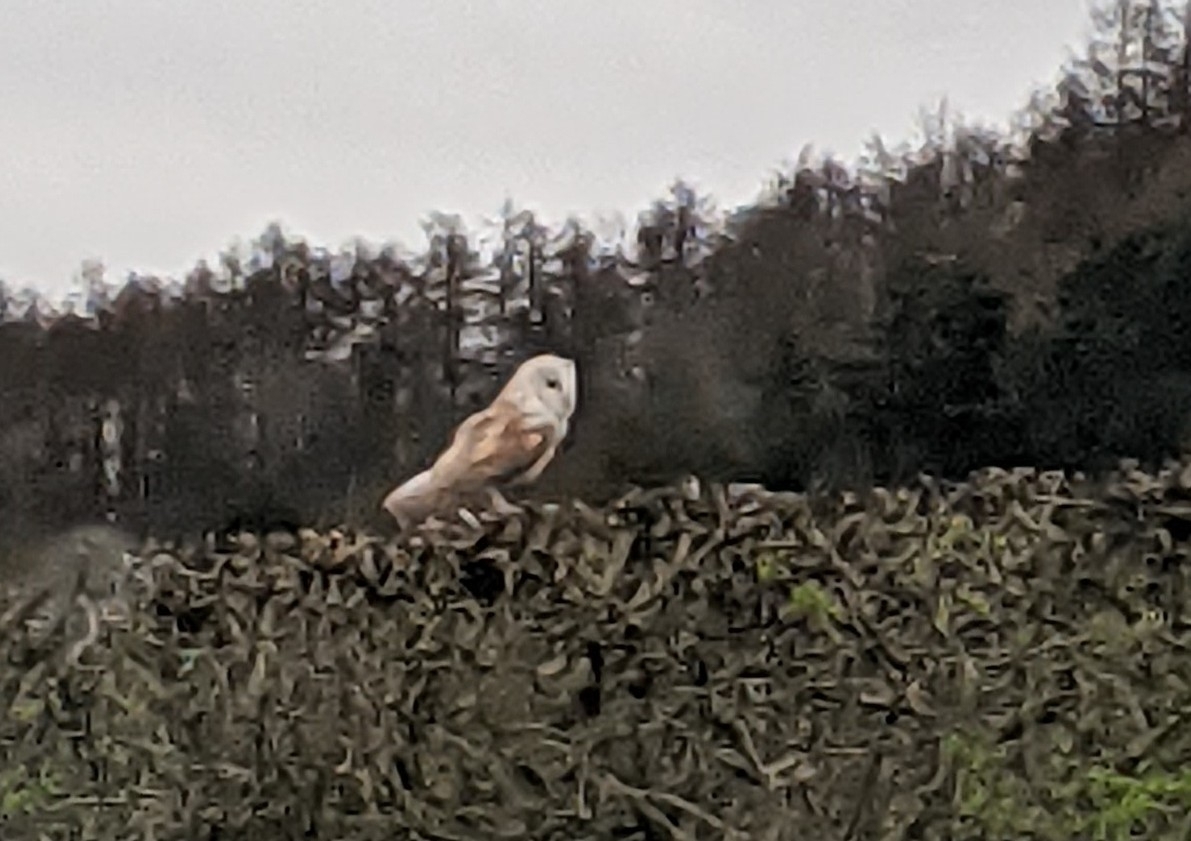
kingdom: Animalia
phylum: Chordata
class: Aves
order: Strigiformes
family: Tytonidae
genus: Tyto
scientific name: Tyto alba
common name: Barn owl
